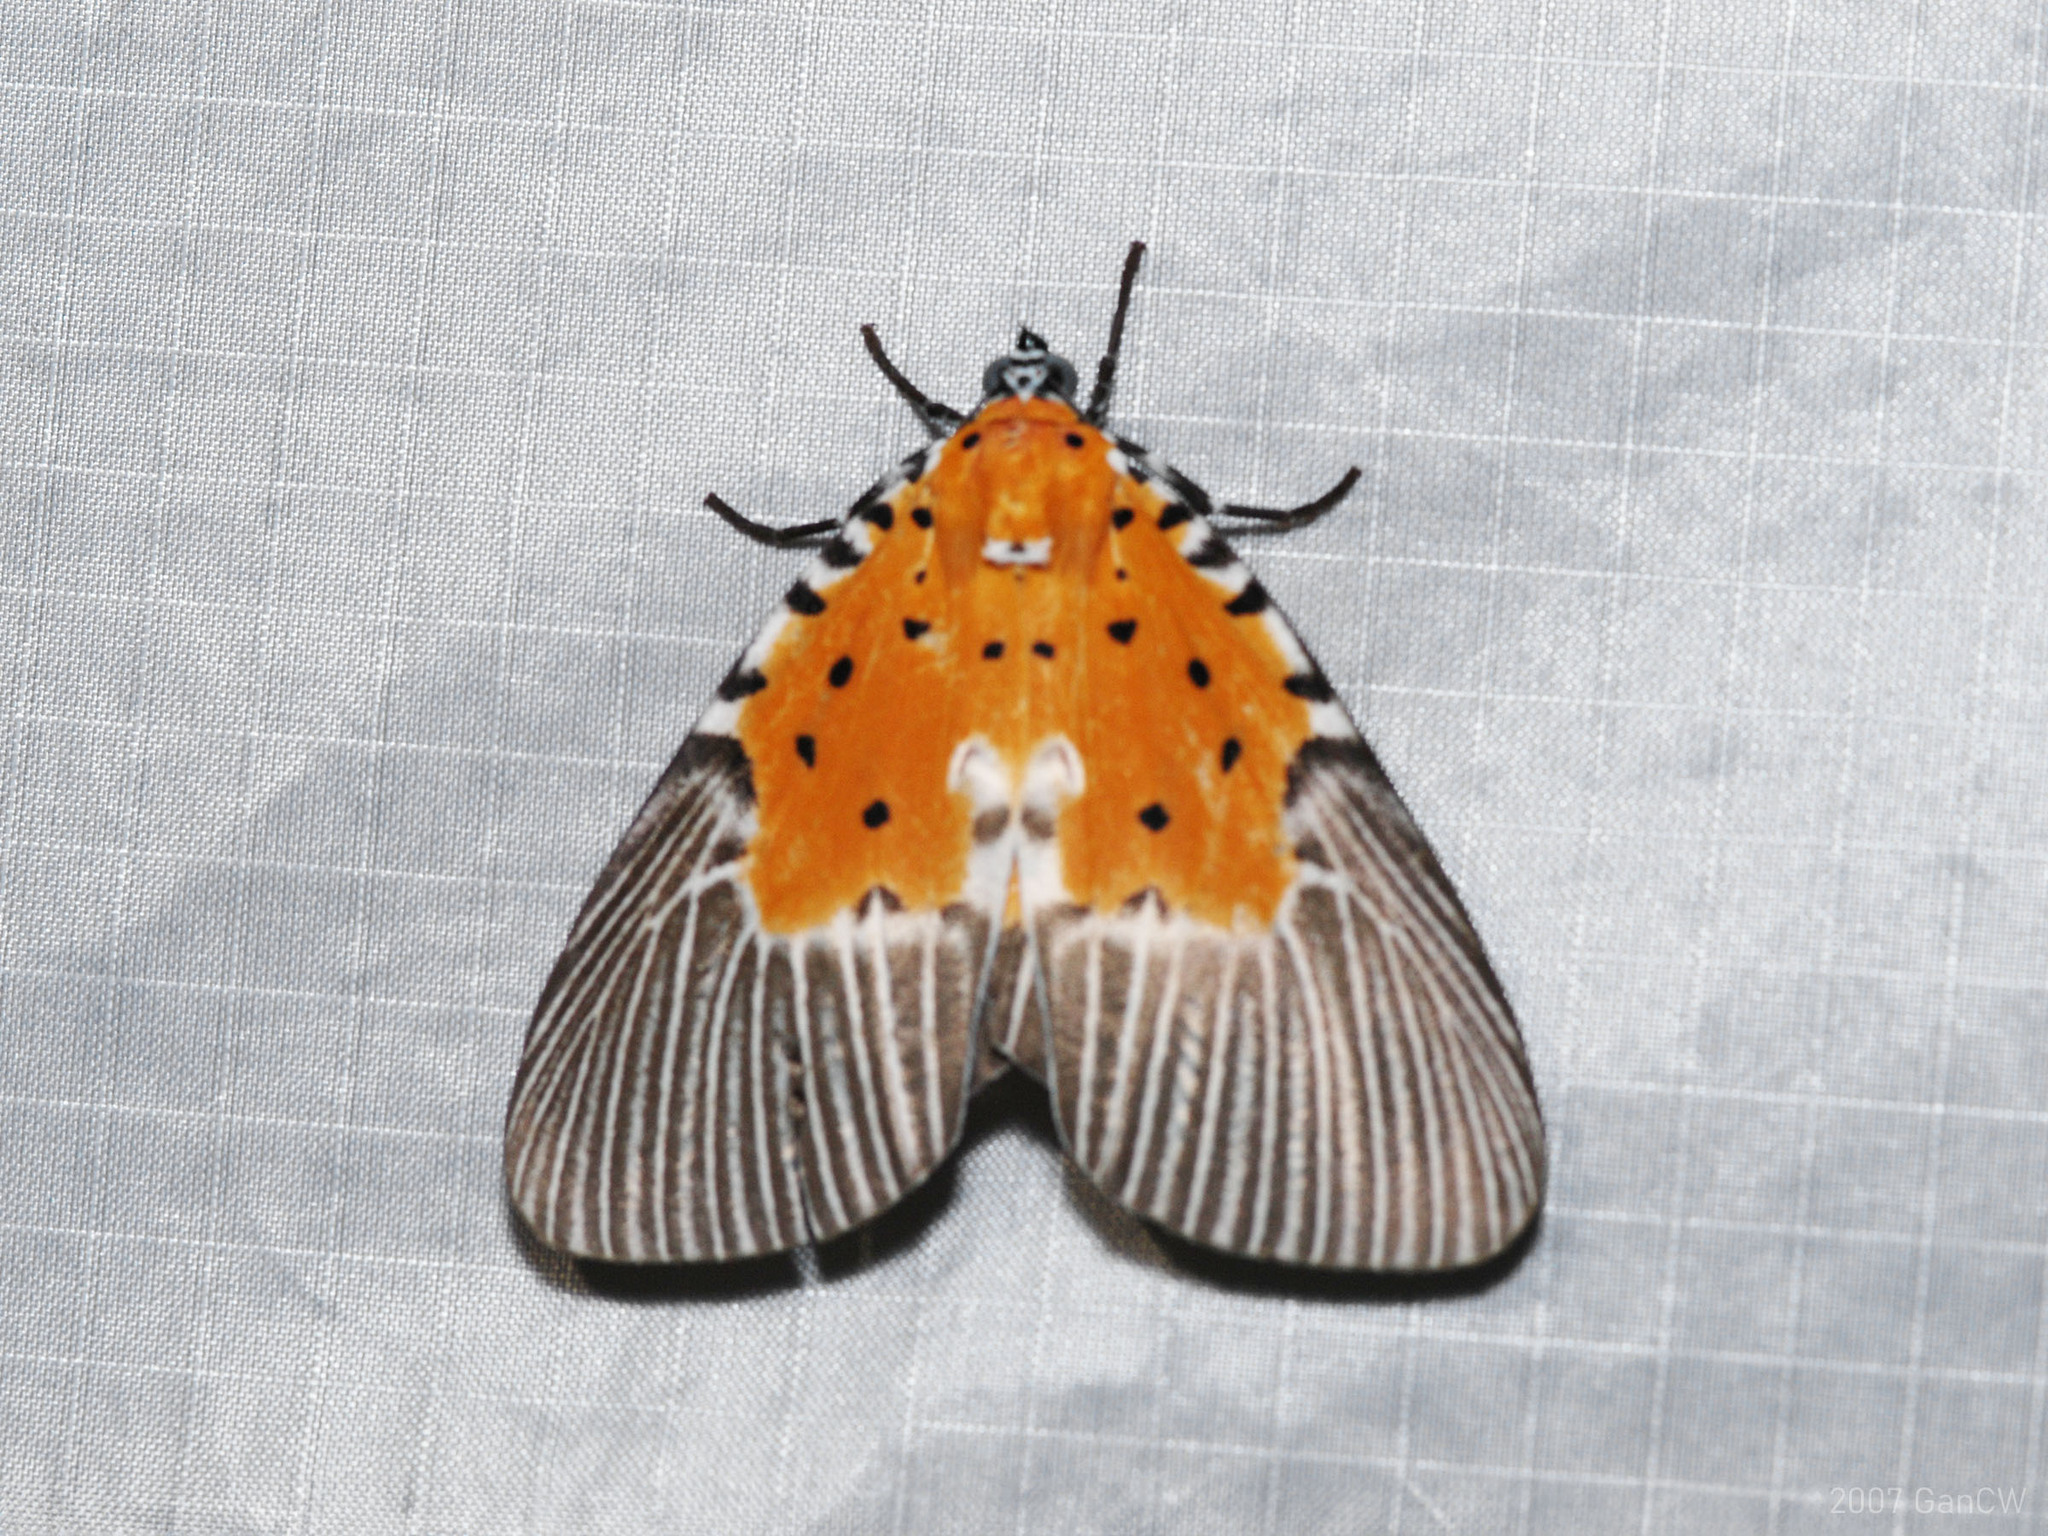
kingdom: Animalia
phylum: Arthropoda
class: Insecta
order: Lepidoptera
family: Erebidae
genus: Peridrome
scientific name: Peridrome orbicularis
